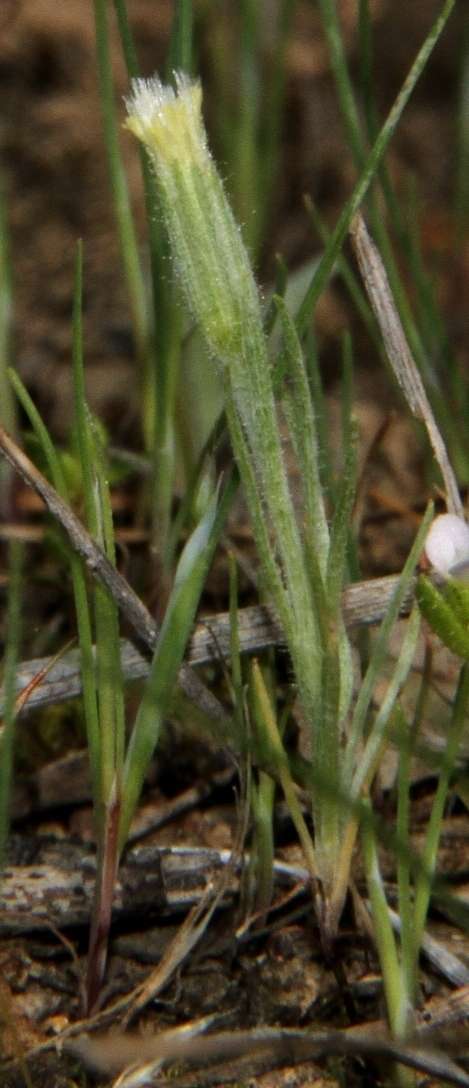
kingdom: Plantae
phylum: Tracheophyta
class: Magnoliopsida
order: Asterales
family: Asteraceae
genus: Millotia
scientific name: Millotia tenuifolia
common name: Soft millotia
